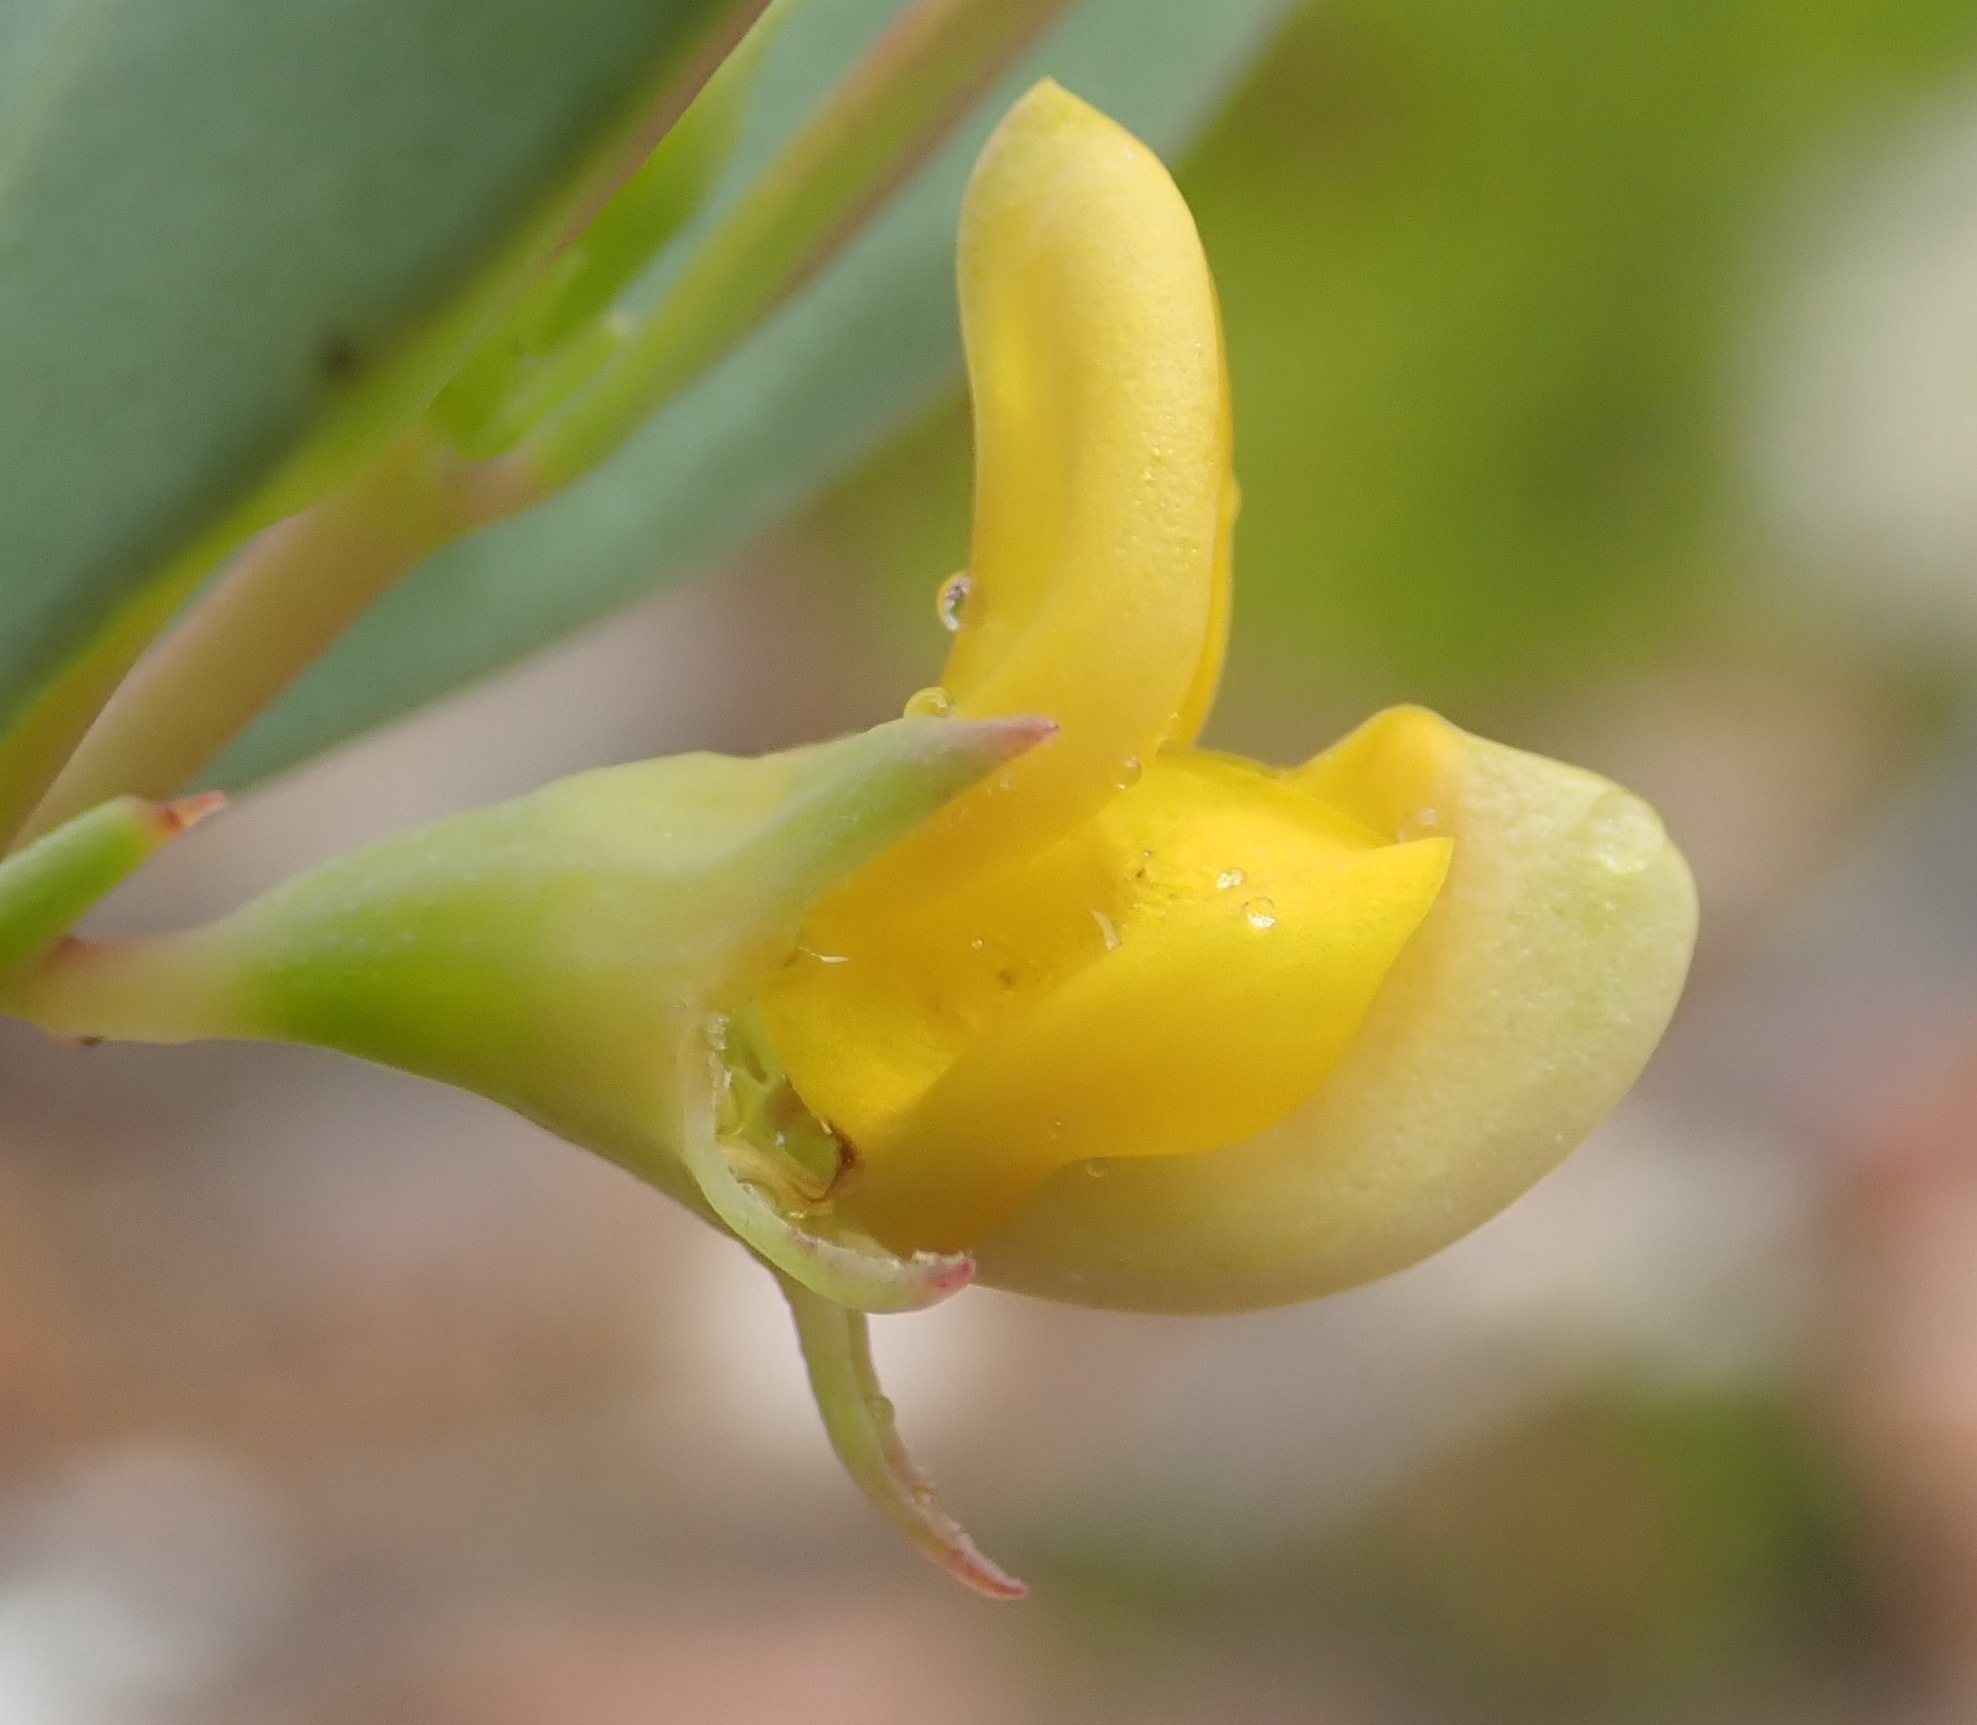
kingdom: Plantae
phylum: Tracheophyta
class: Magnoliopsida
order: Fabales
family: Fabaceae
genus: Rafnia
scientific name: Rafnia capensis
